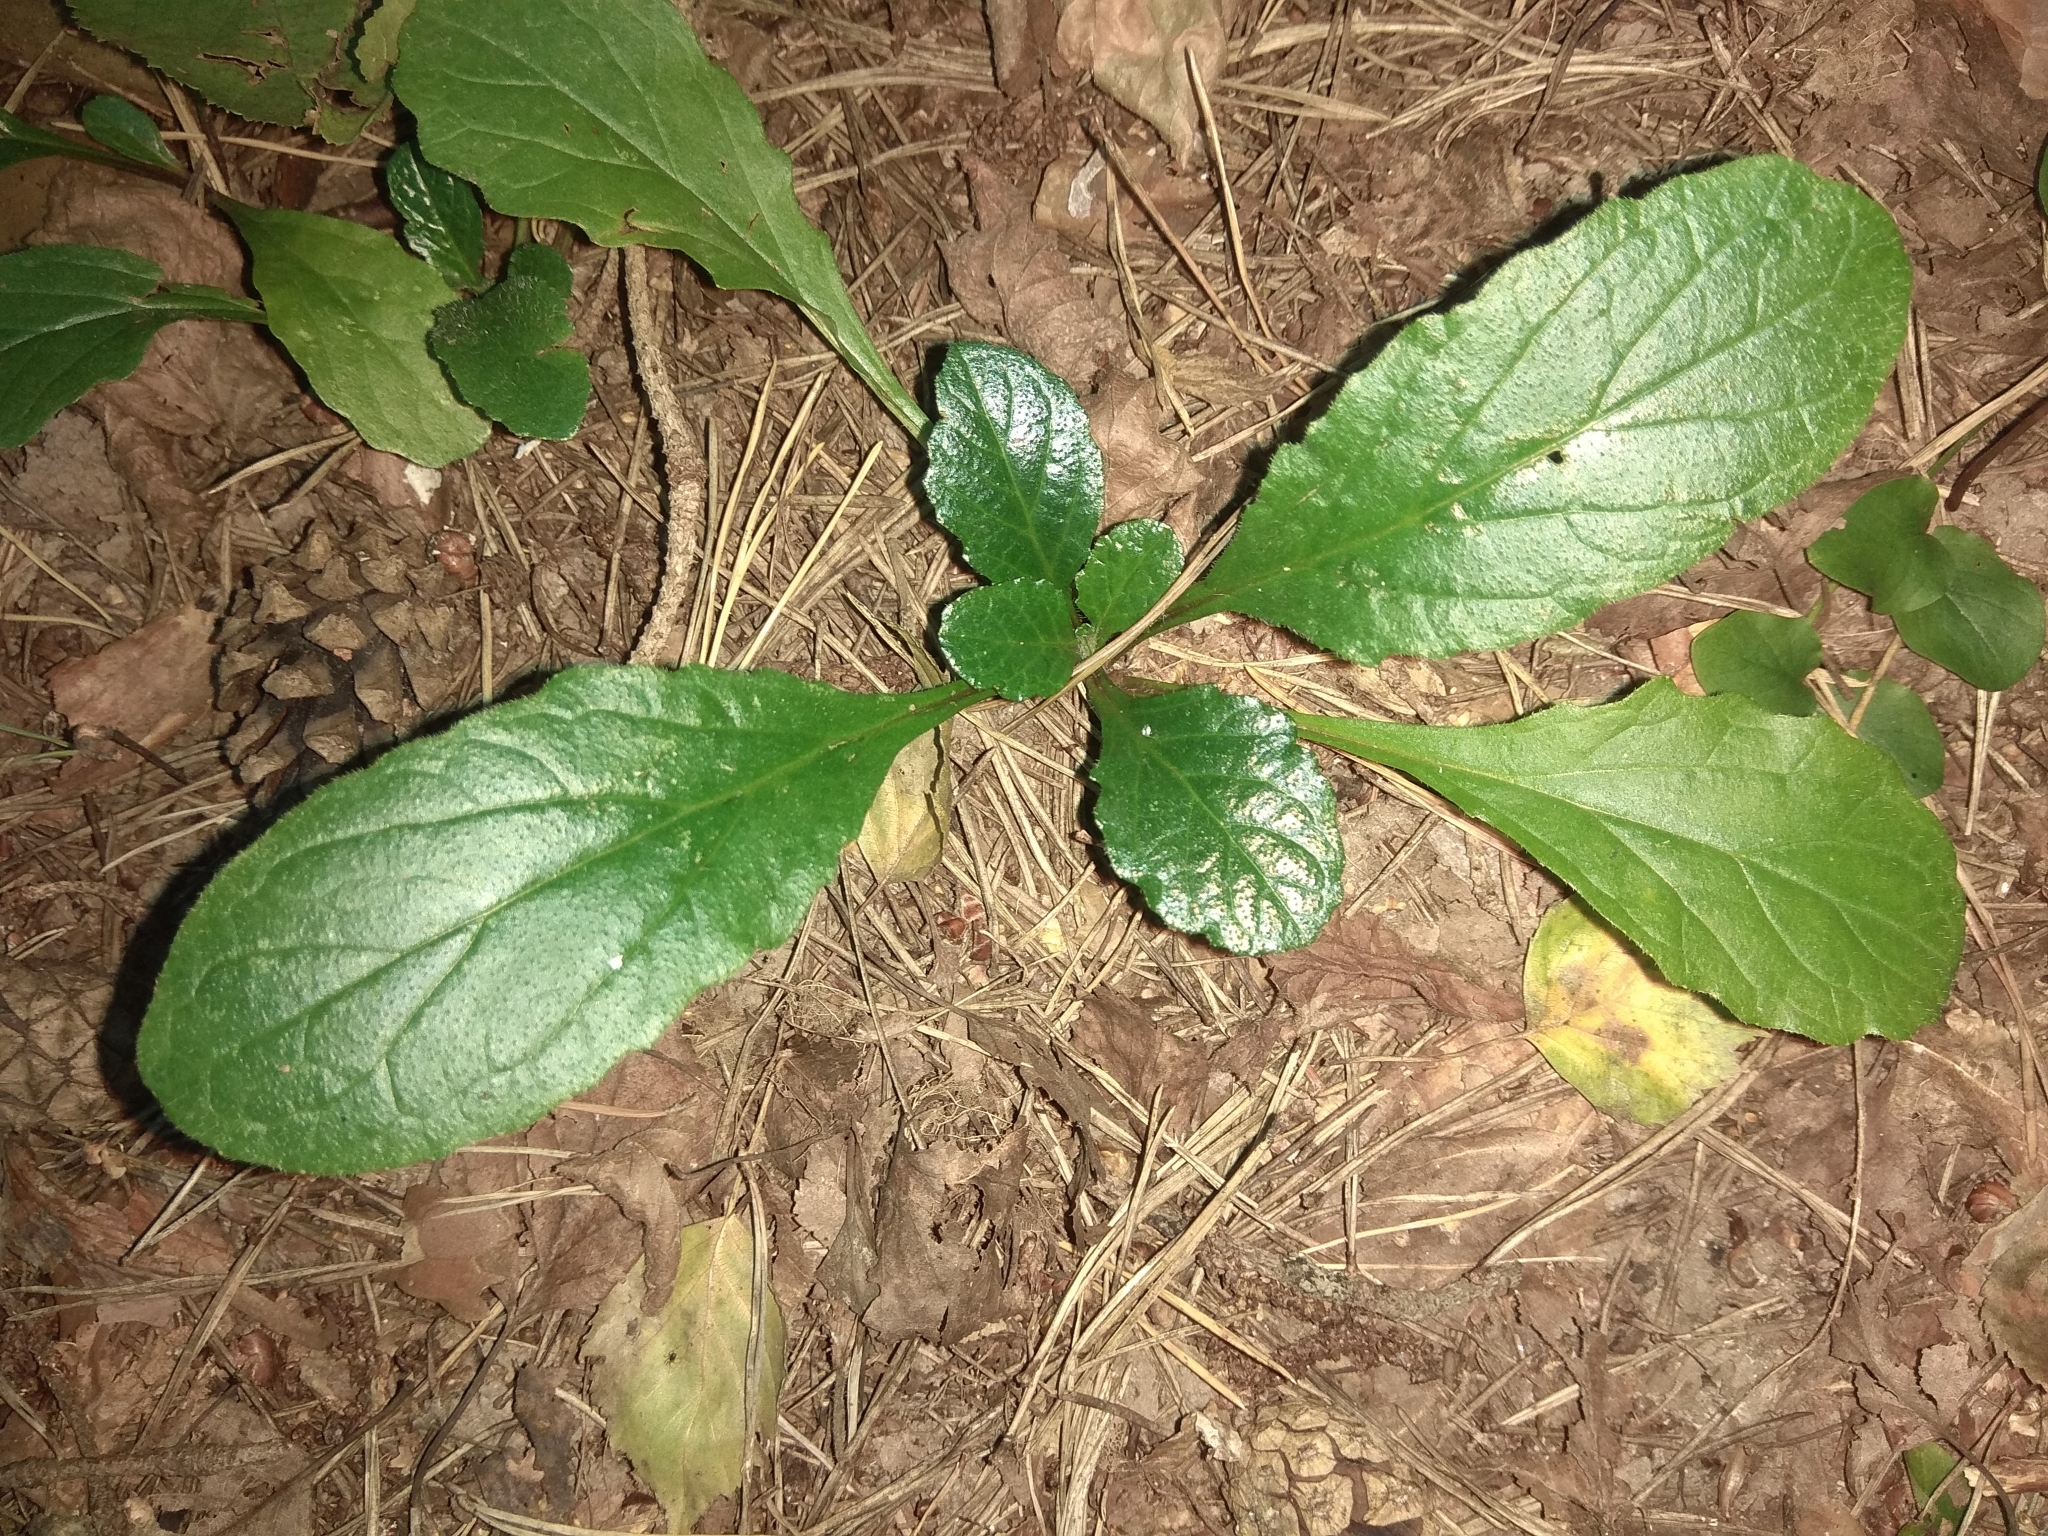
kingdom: Plantae
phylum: Tracheophyta
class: Magnoliopsida
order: Lamiales
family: Lamiaceae
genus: Ajuga
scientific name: Ajuga reptans
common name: Bugle
